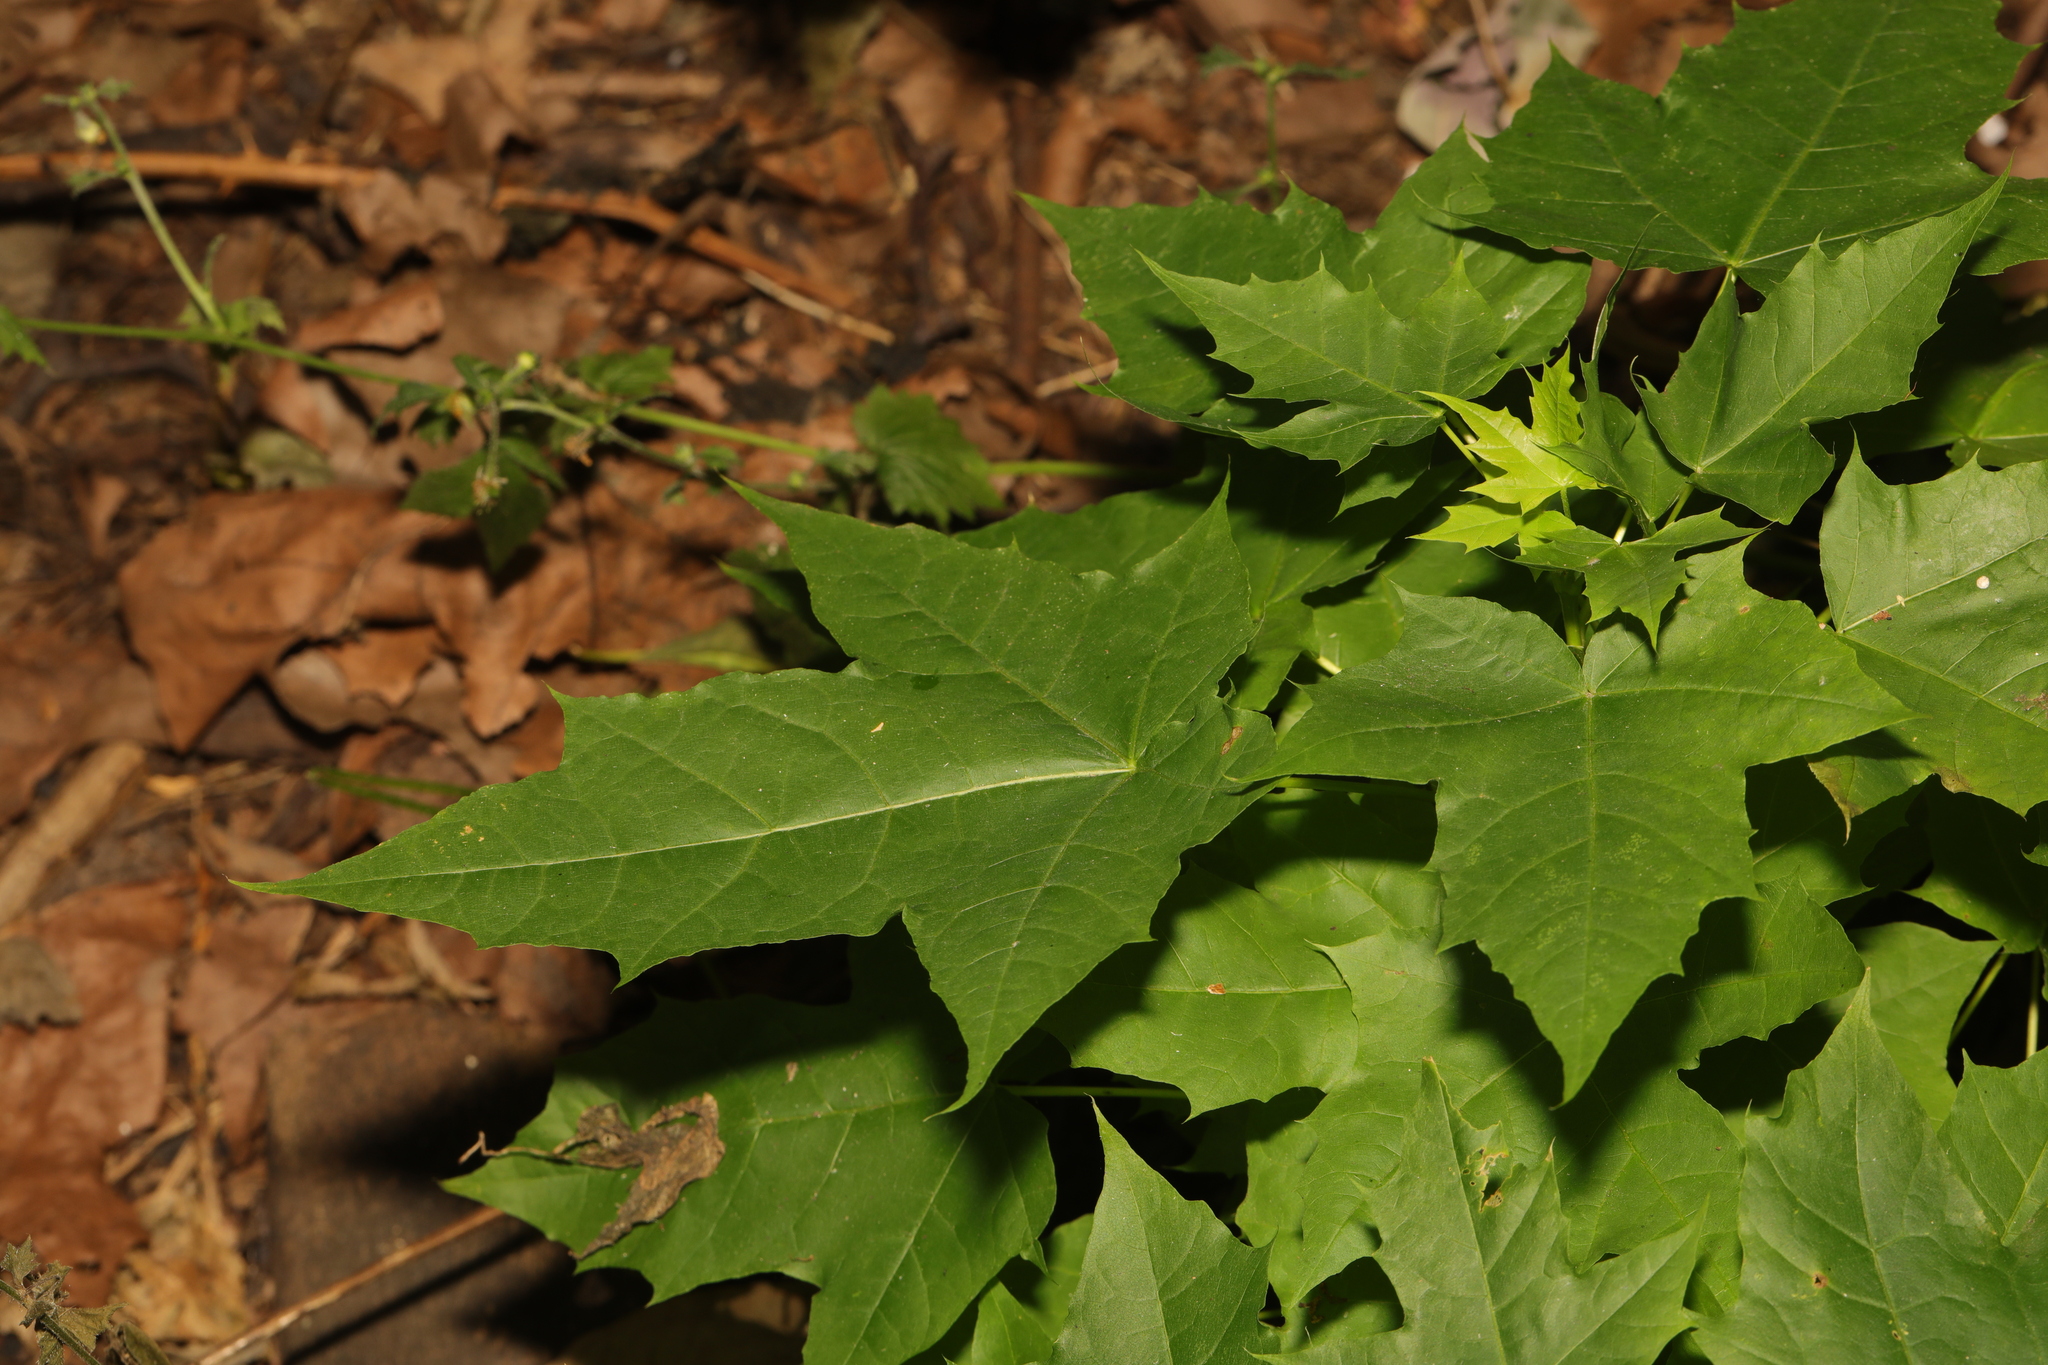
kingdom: Plantae
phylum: Tracheophyta
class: Magnoliopsida
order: Saxifragales
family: Altingiaceae
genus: Liquidambar
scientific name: Liquidambar styraciflua
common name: Sweet gum
